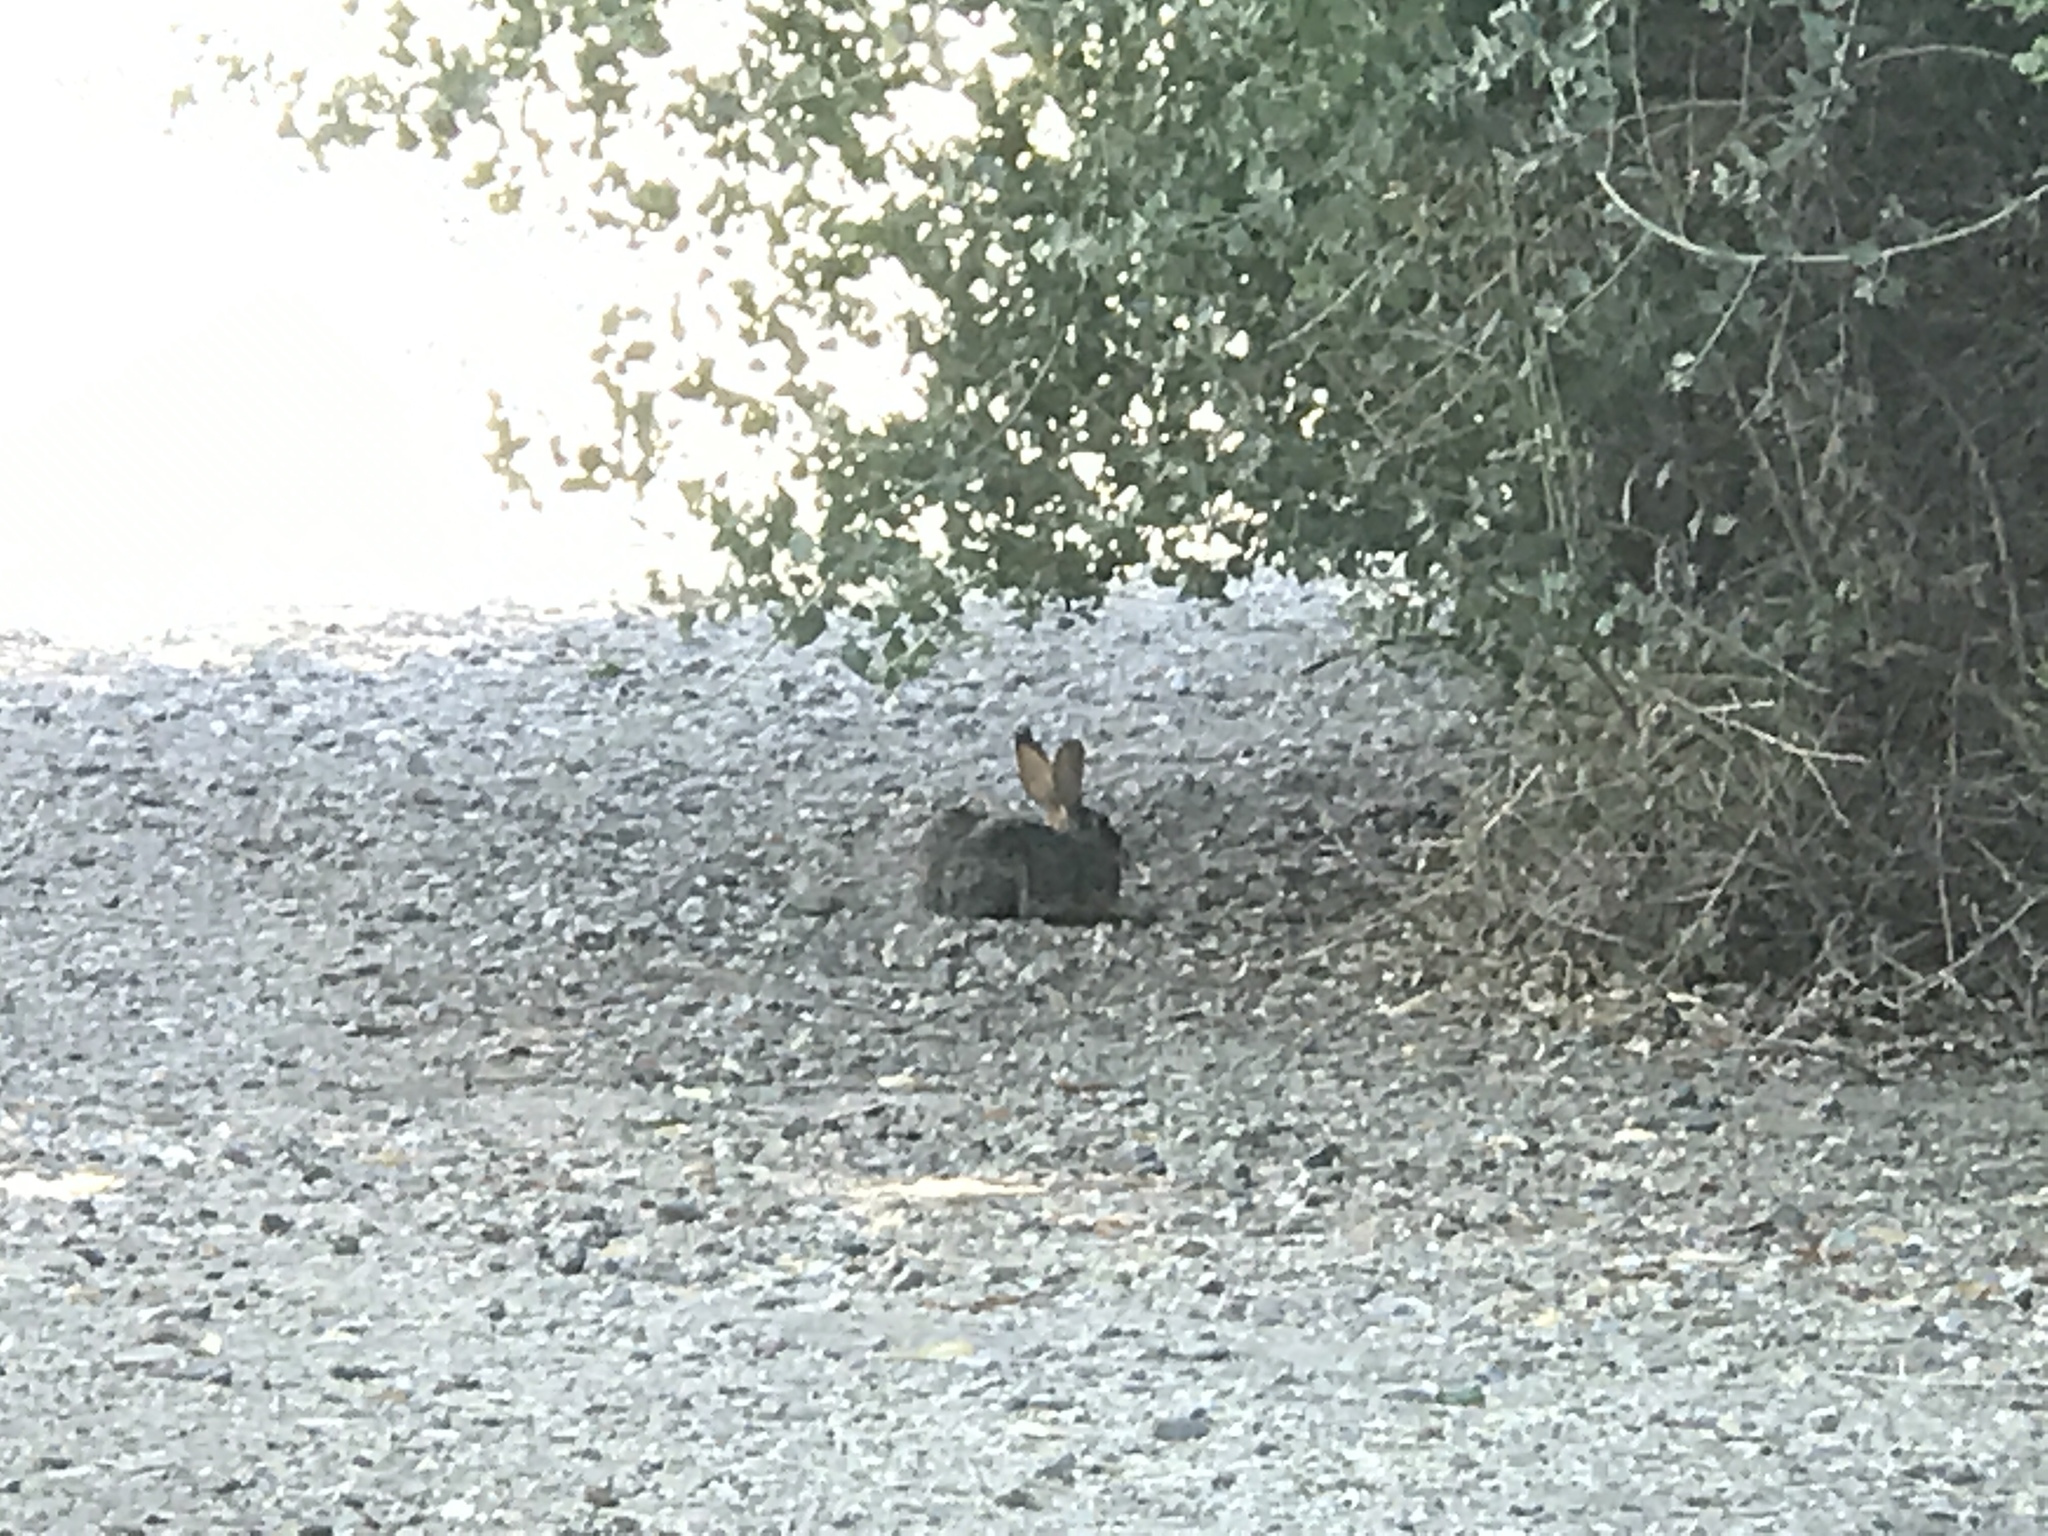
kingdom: Animalia
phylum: Chordata
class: Mammalia
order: Lagomorpha
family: Leporidae
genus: Sylvilagus
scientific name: Sylvilagus audubonii
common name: Desert cottontail
